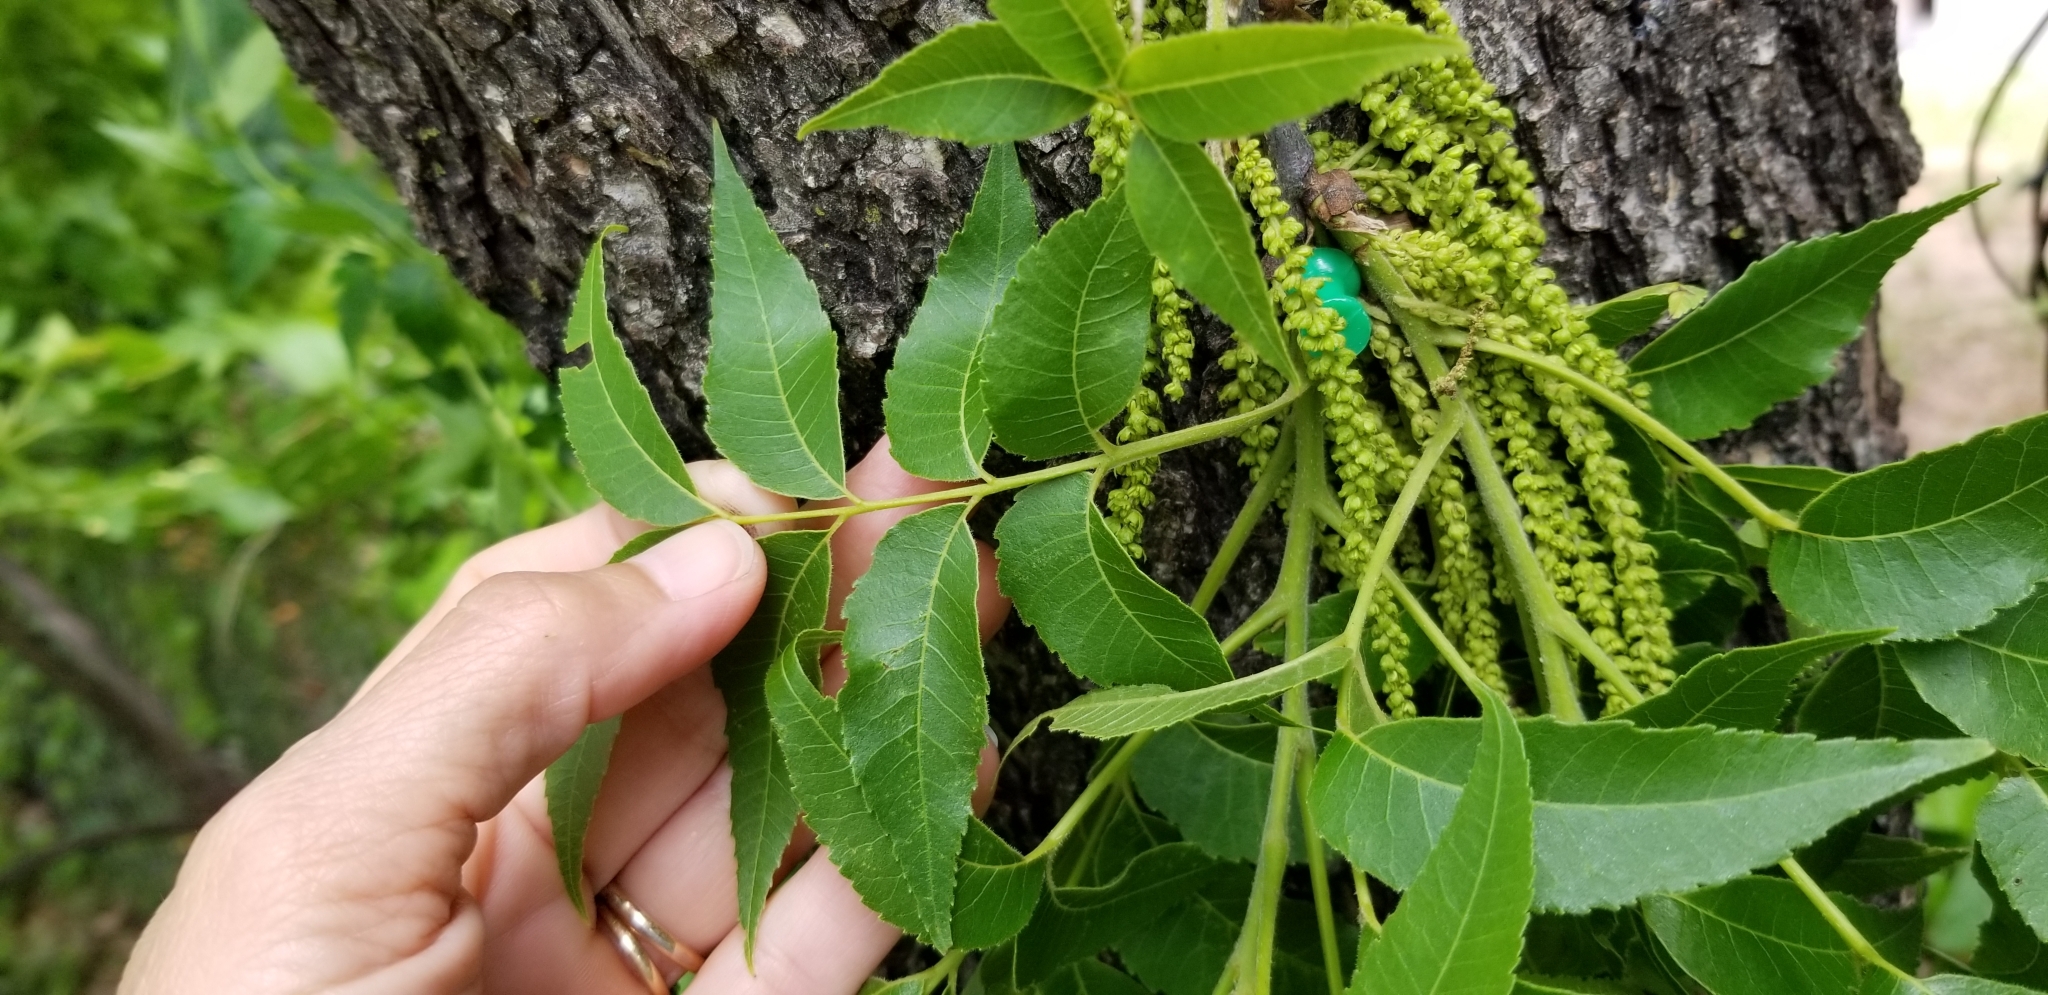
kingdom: Plantae
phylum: Tracheophyta
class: Magnoliopsida
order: Fagales
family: Juglandaceae
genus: Carya
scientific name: Carya illinoinensis
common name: Pecan
